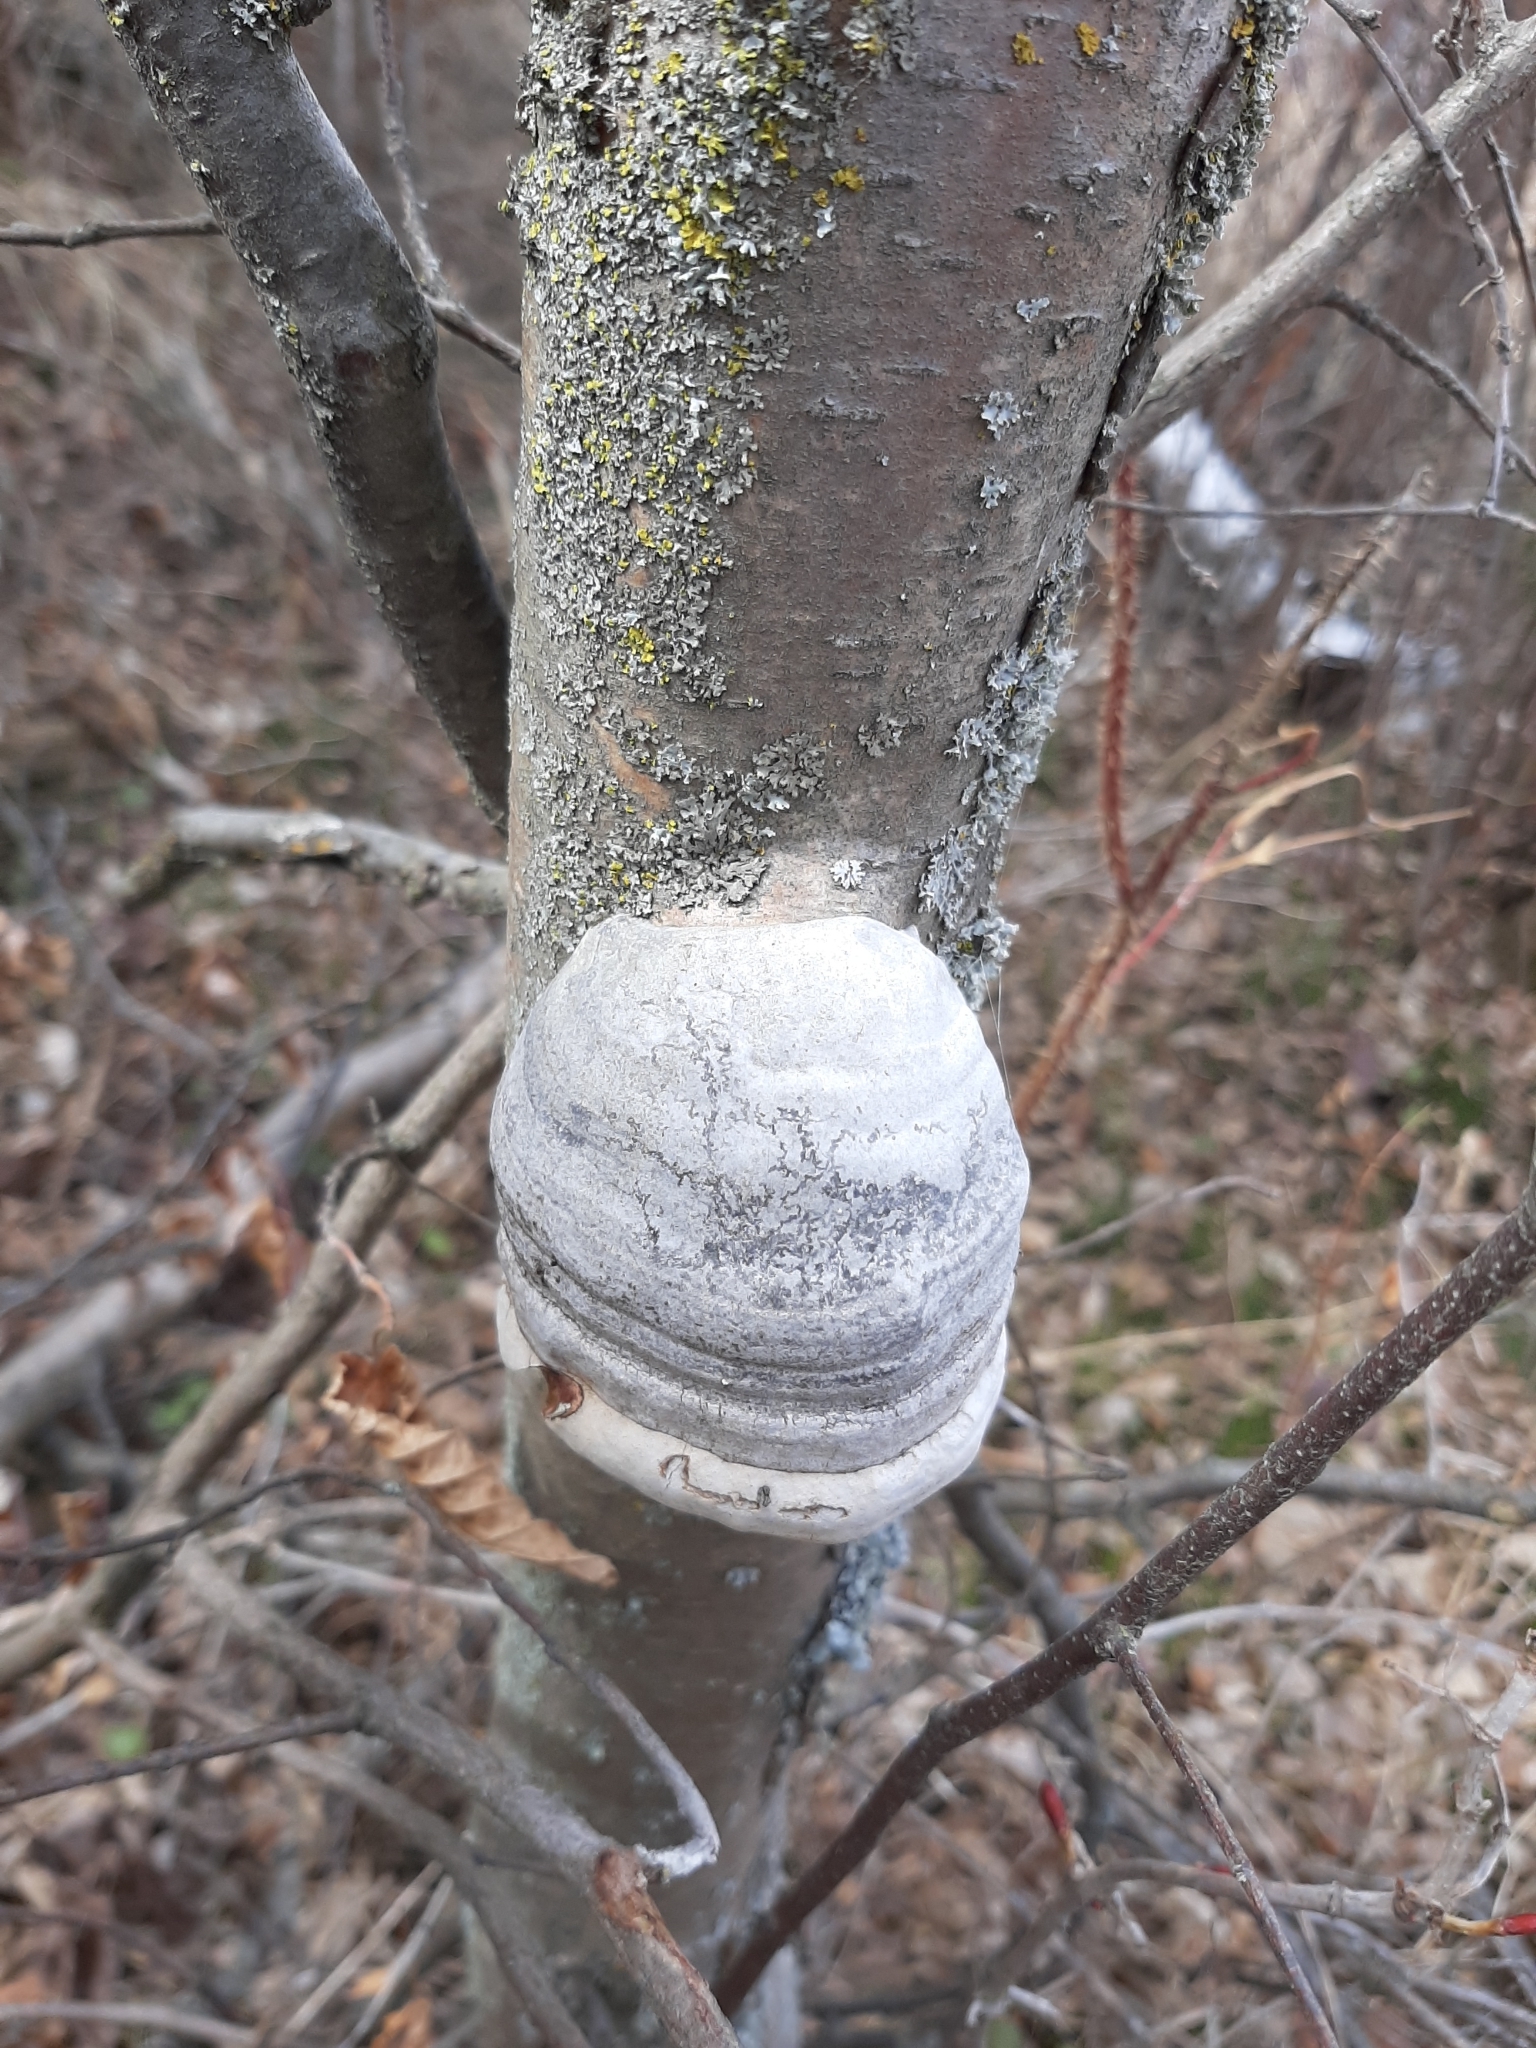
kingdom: Fungi
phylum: Basidiomycota
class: Agaricomycetes
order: Polyporales
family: Polyporaceae
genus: Fomes
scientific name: Fomes fomentarius
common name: Hoof fungus
